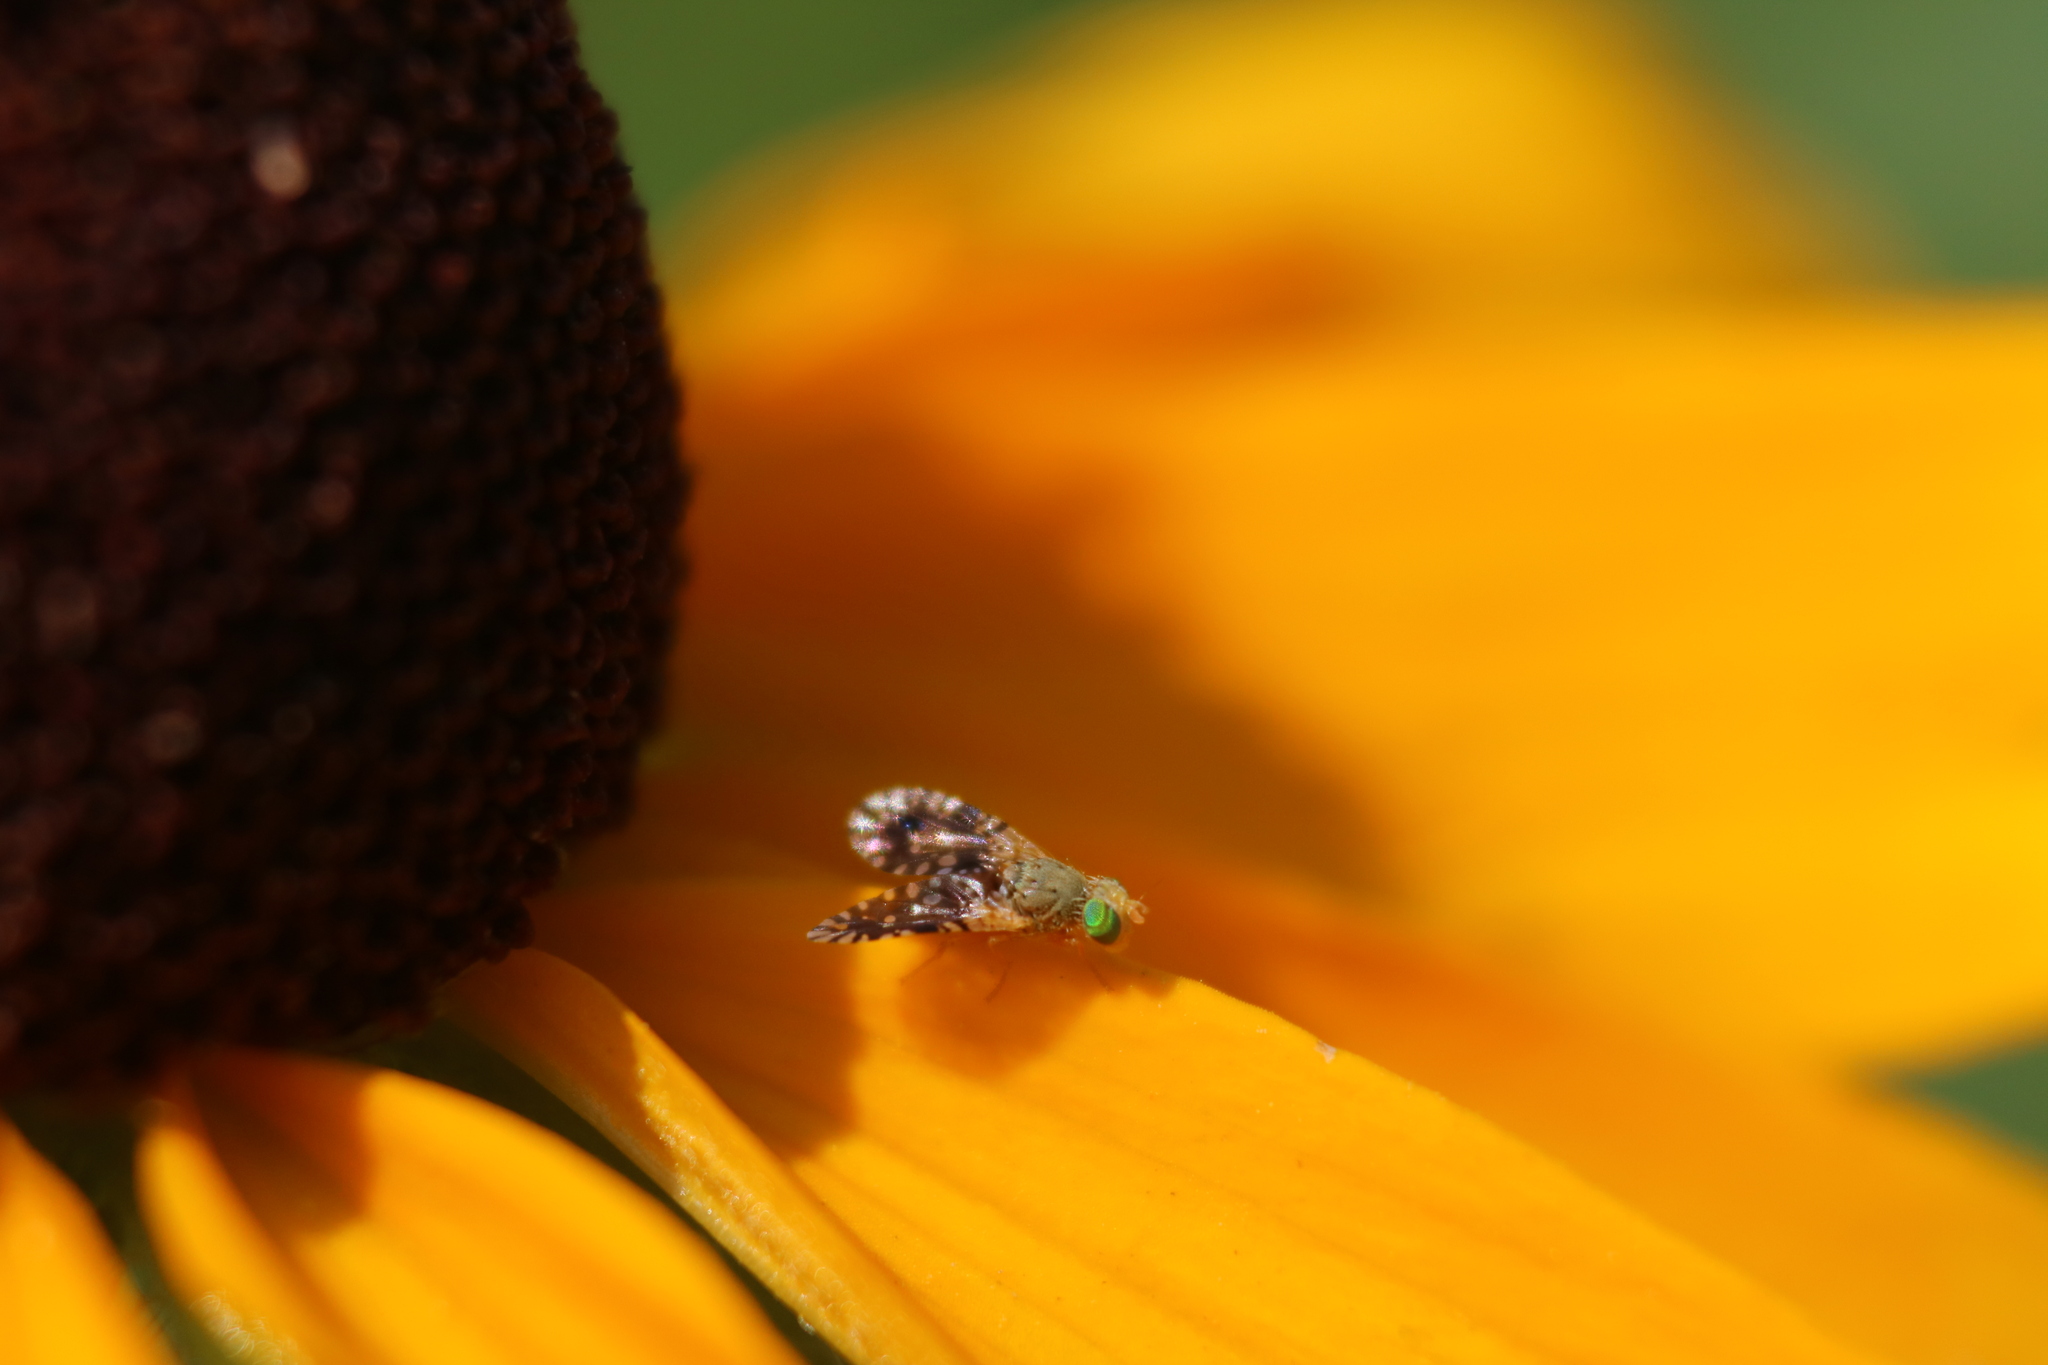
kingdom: Animalia
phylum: Arthropoda
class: Insecta
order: Diptera
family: Tephritidae
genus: Euaresta
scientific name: Euaresta bella
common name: Common ragweed fruit fly
